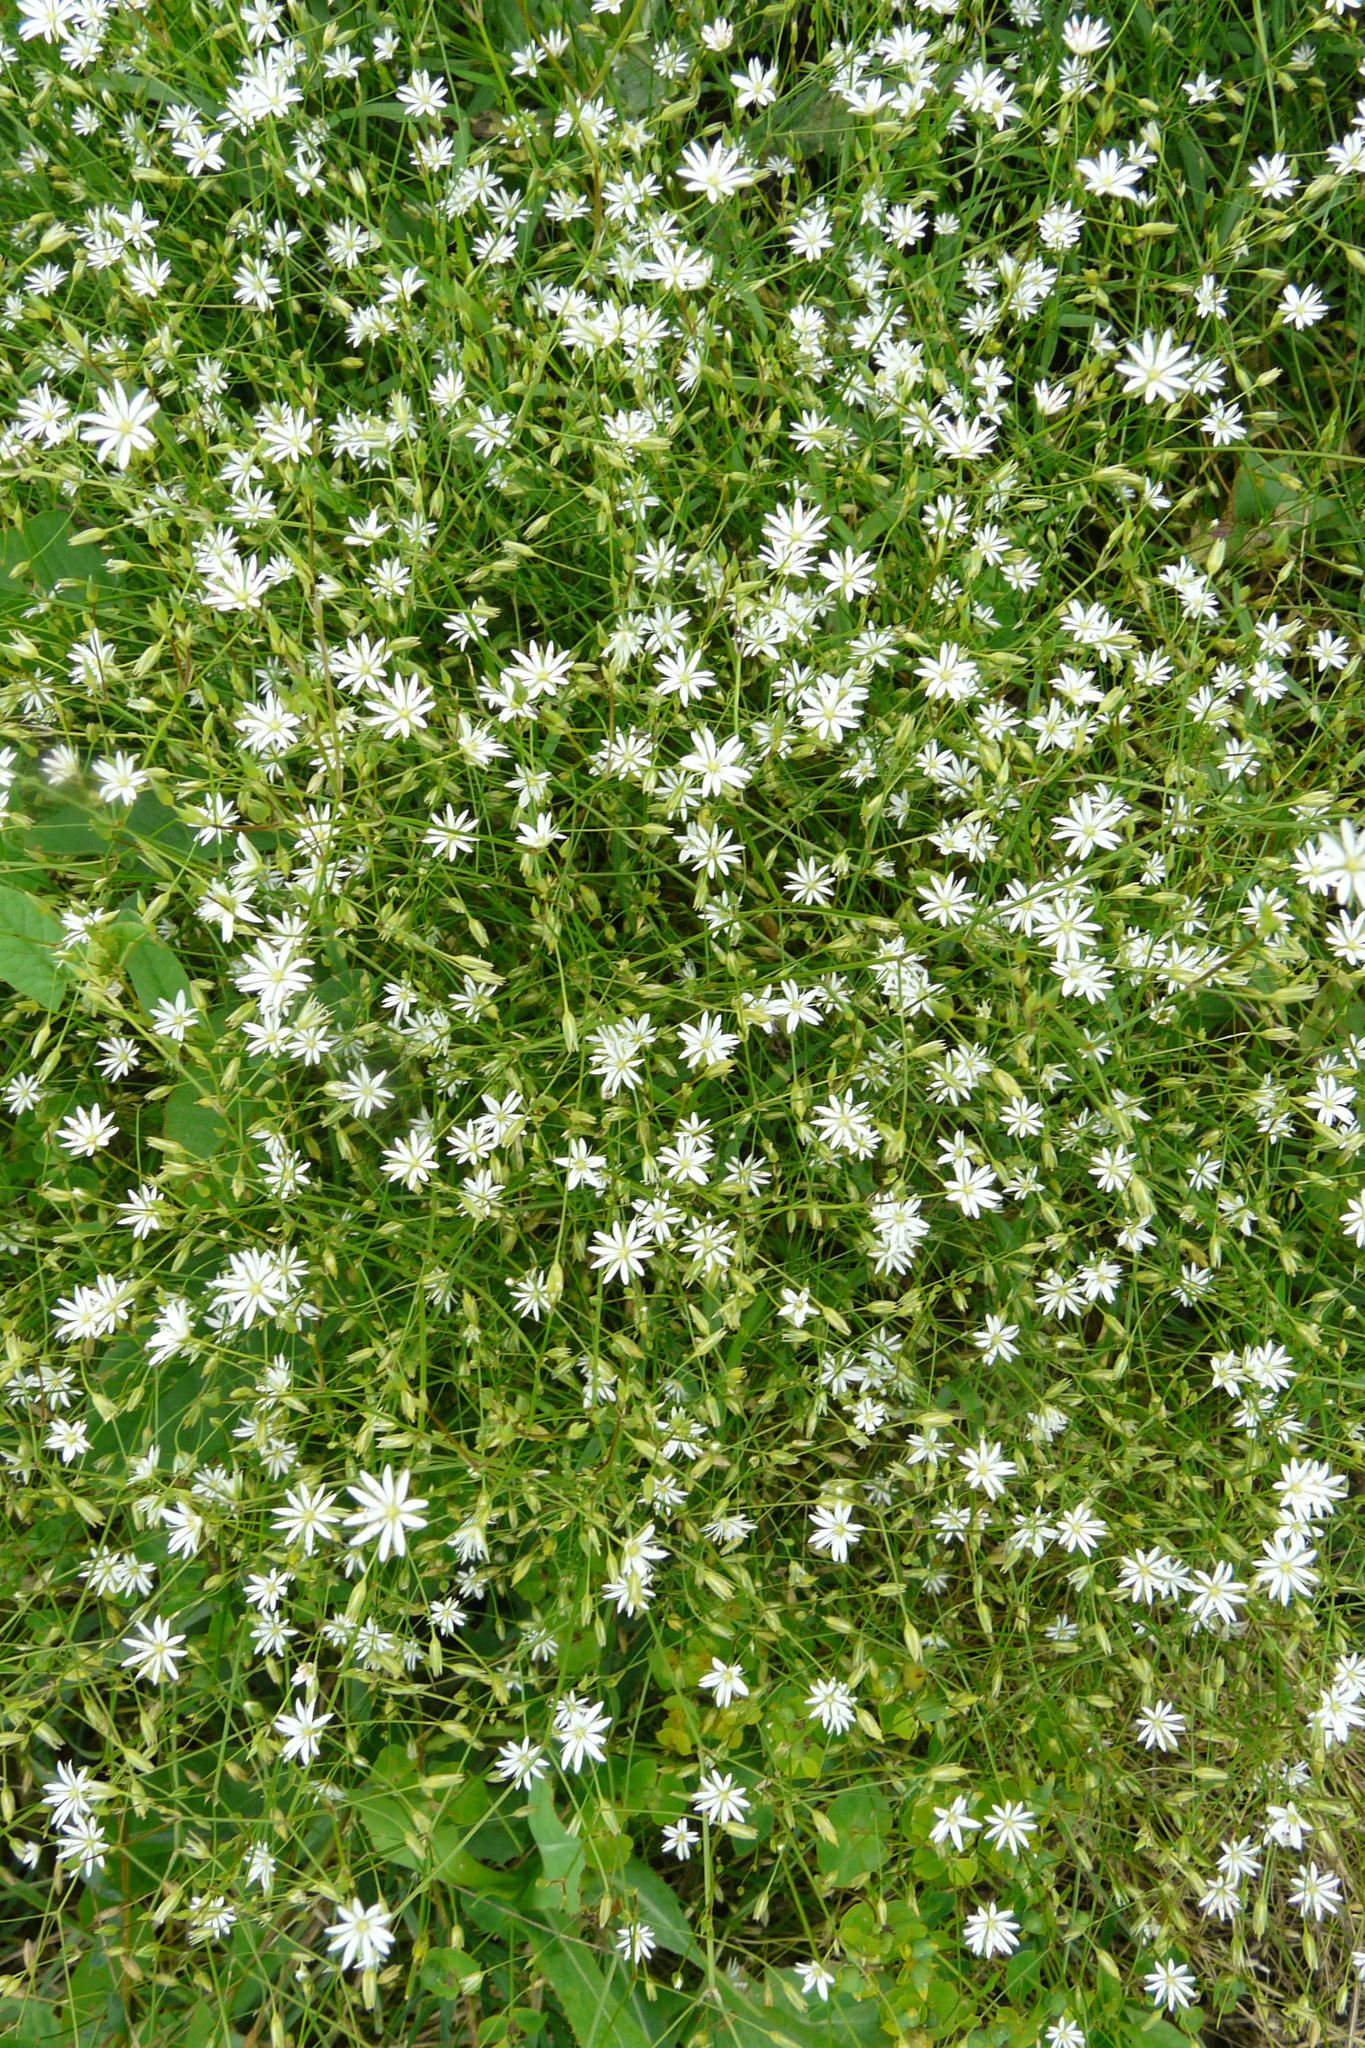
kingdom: Plantae
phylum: Tracheophyta
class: Magnoliopsida
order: Caryophyllales
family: Caryophyllaceae
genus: Stellaria
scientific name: Stellaria graminea
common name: Grass-like starwort
